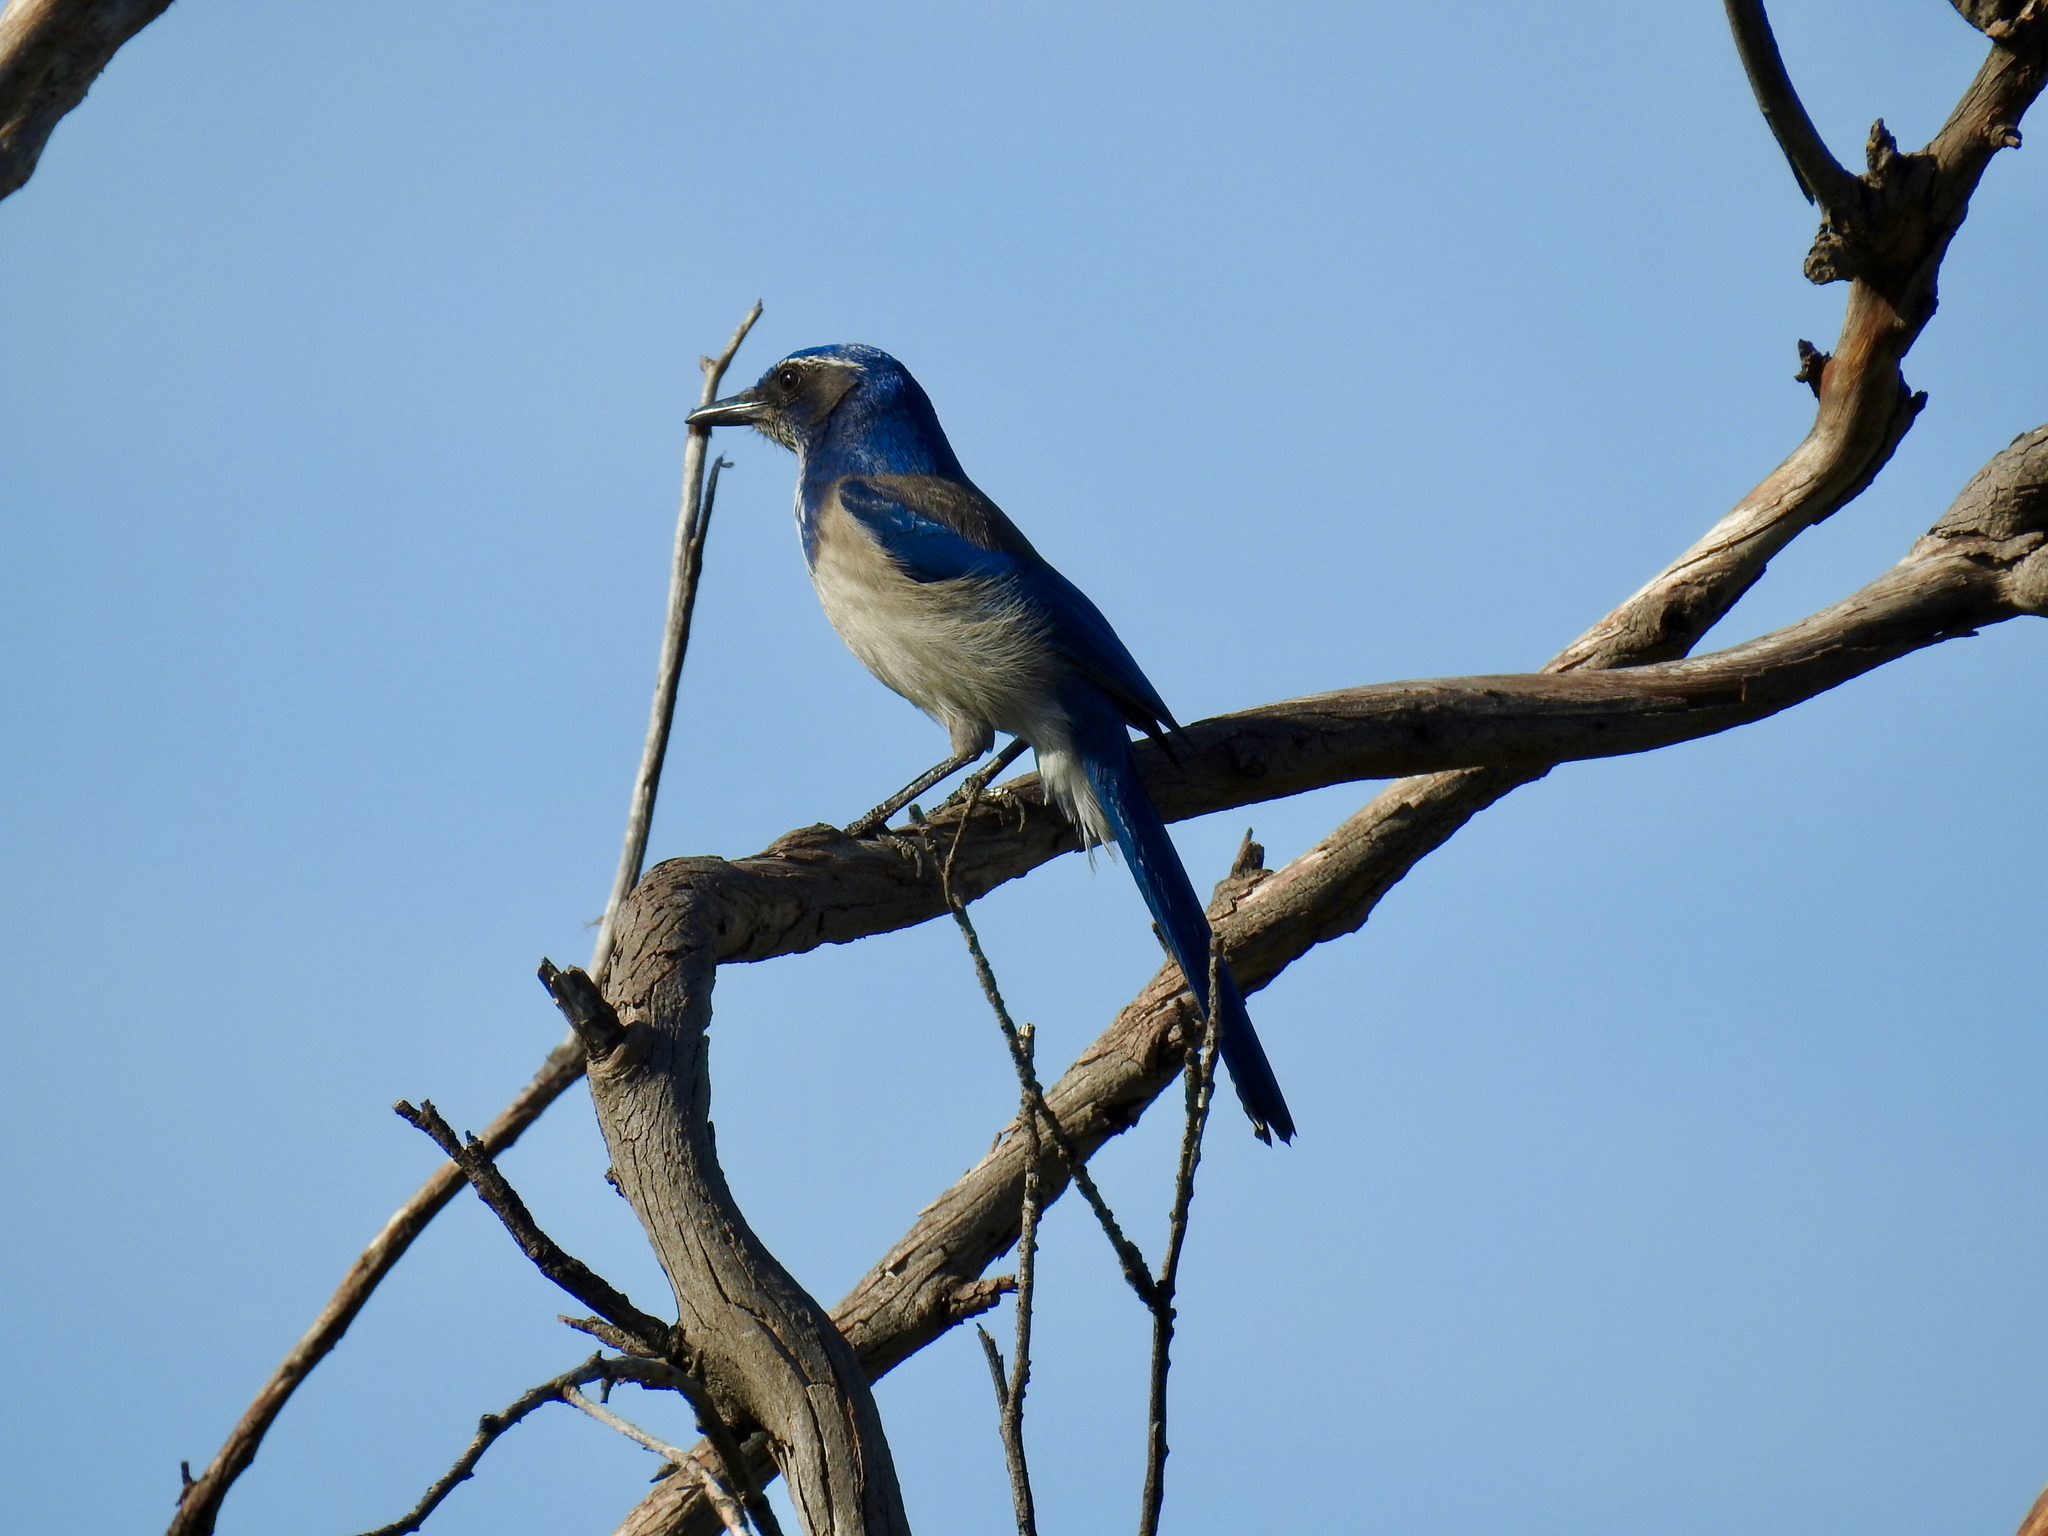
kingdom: Animalia
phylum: Chordata
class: Aves
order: Passeriformes
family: Corvidae
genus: Aphelocoma
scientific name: Aphelocoma californica
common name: California scrub-jay
